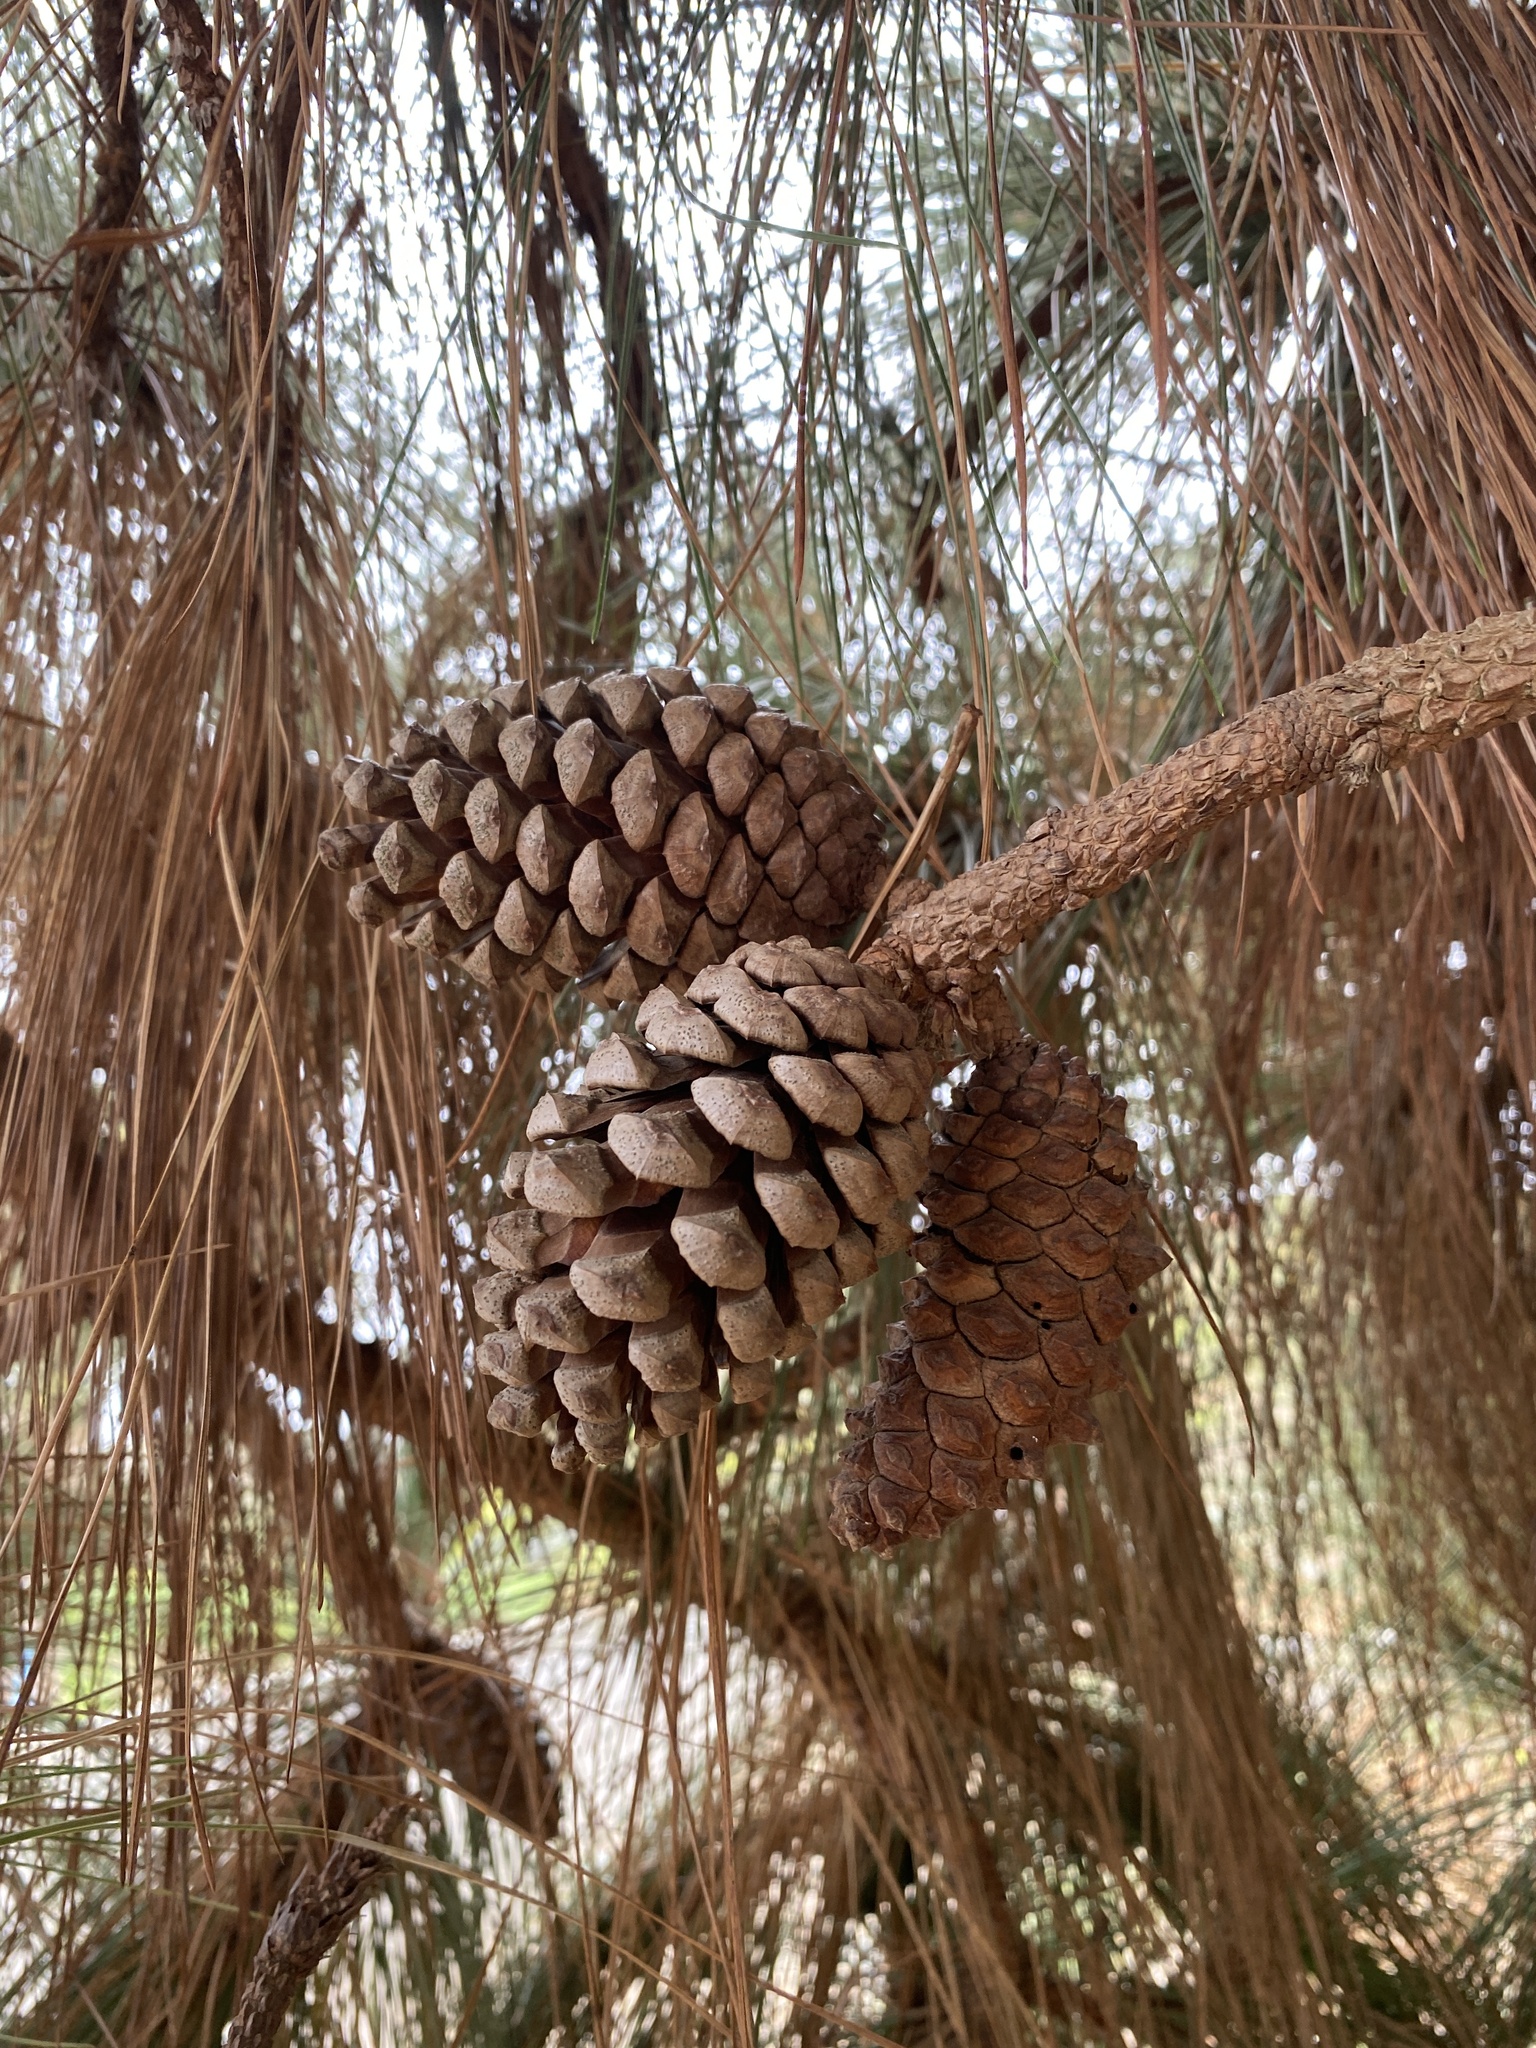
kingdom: Plantae
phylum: Tracheophyta
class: Pinopsida
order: Pinales
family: Pinaceae
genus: Pinus
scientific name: Pinus canariensis
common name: Canary islands pine
